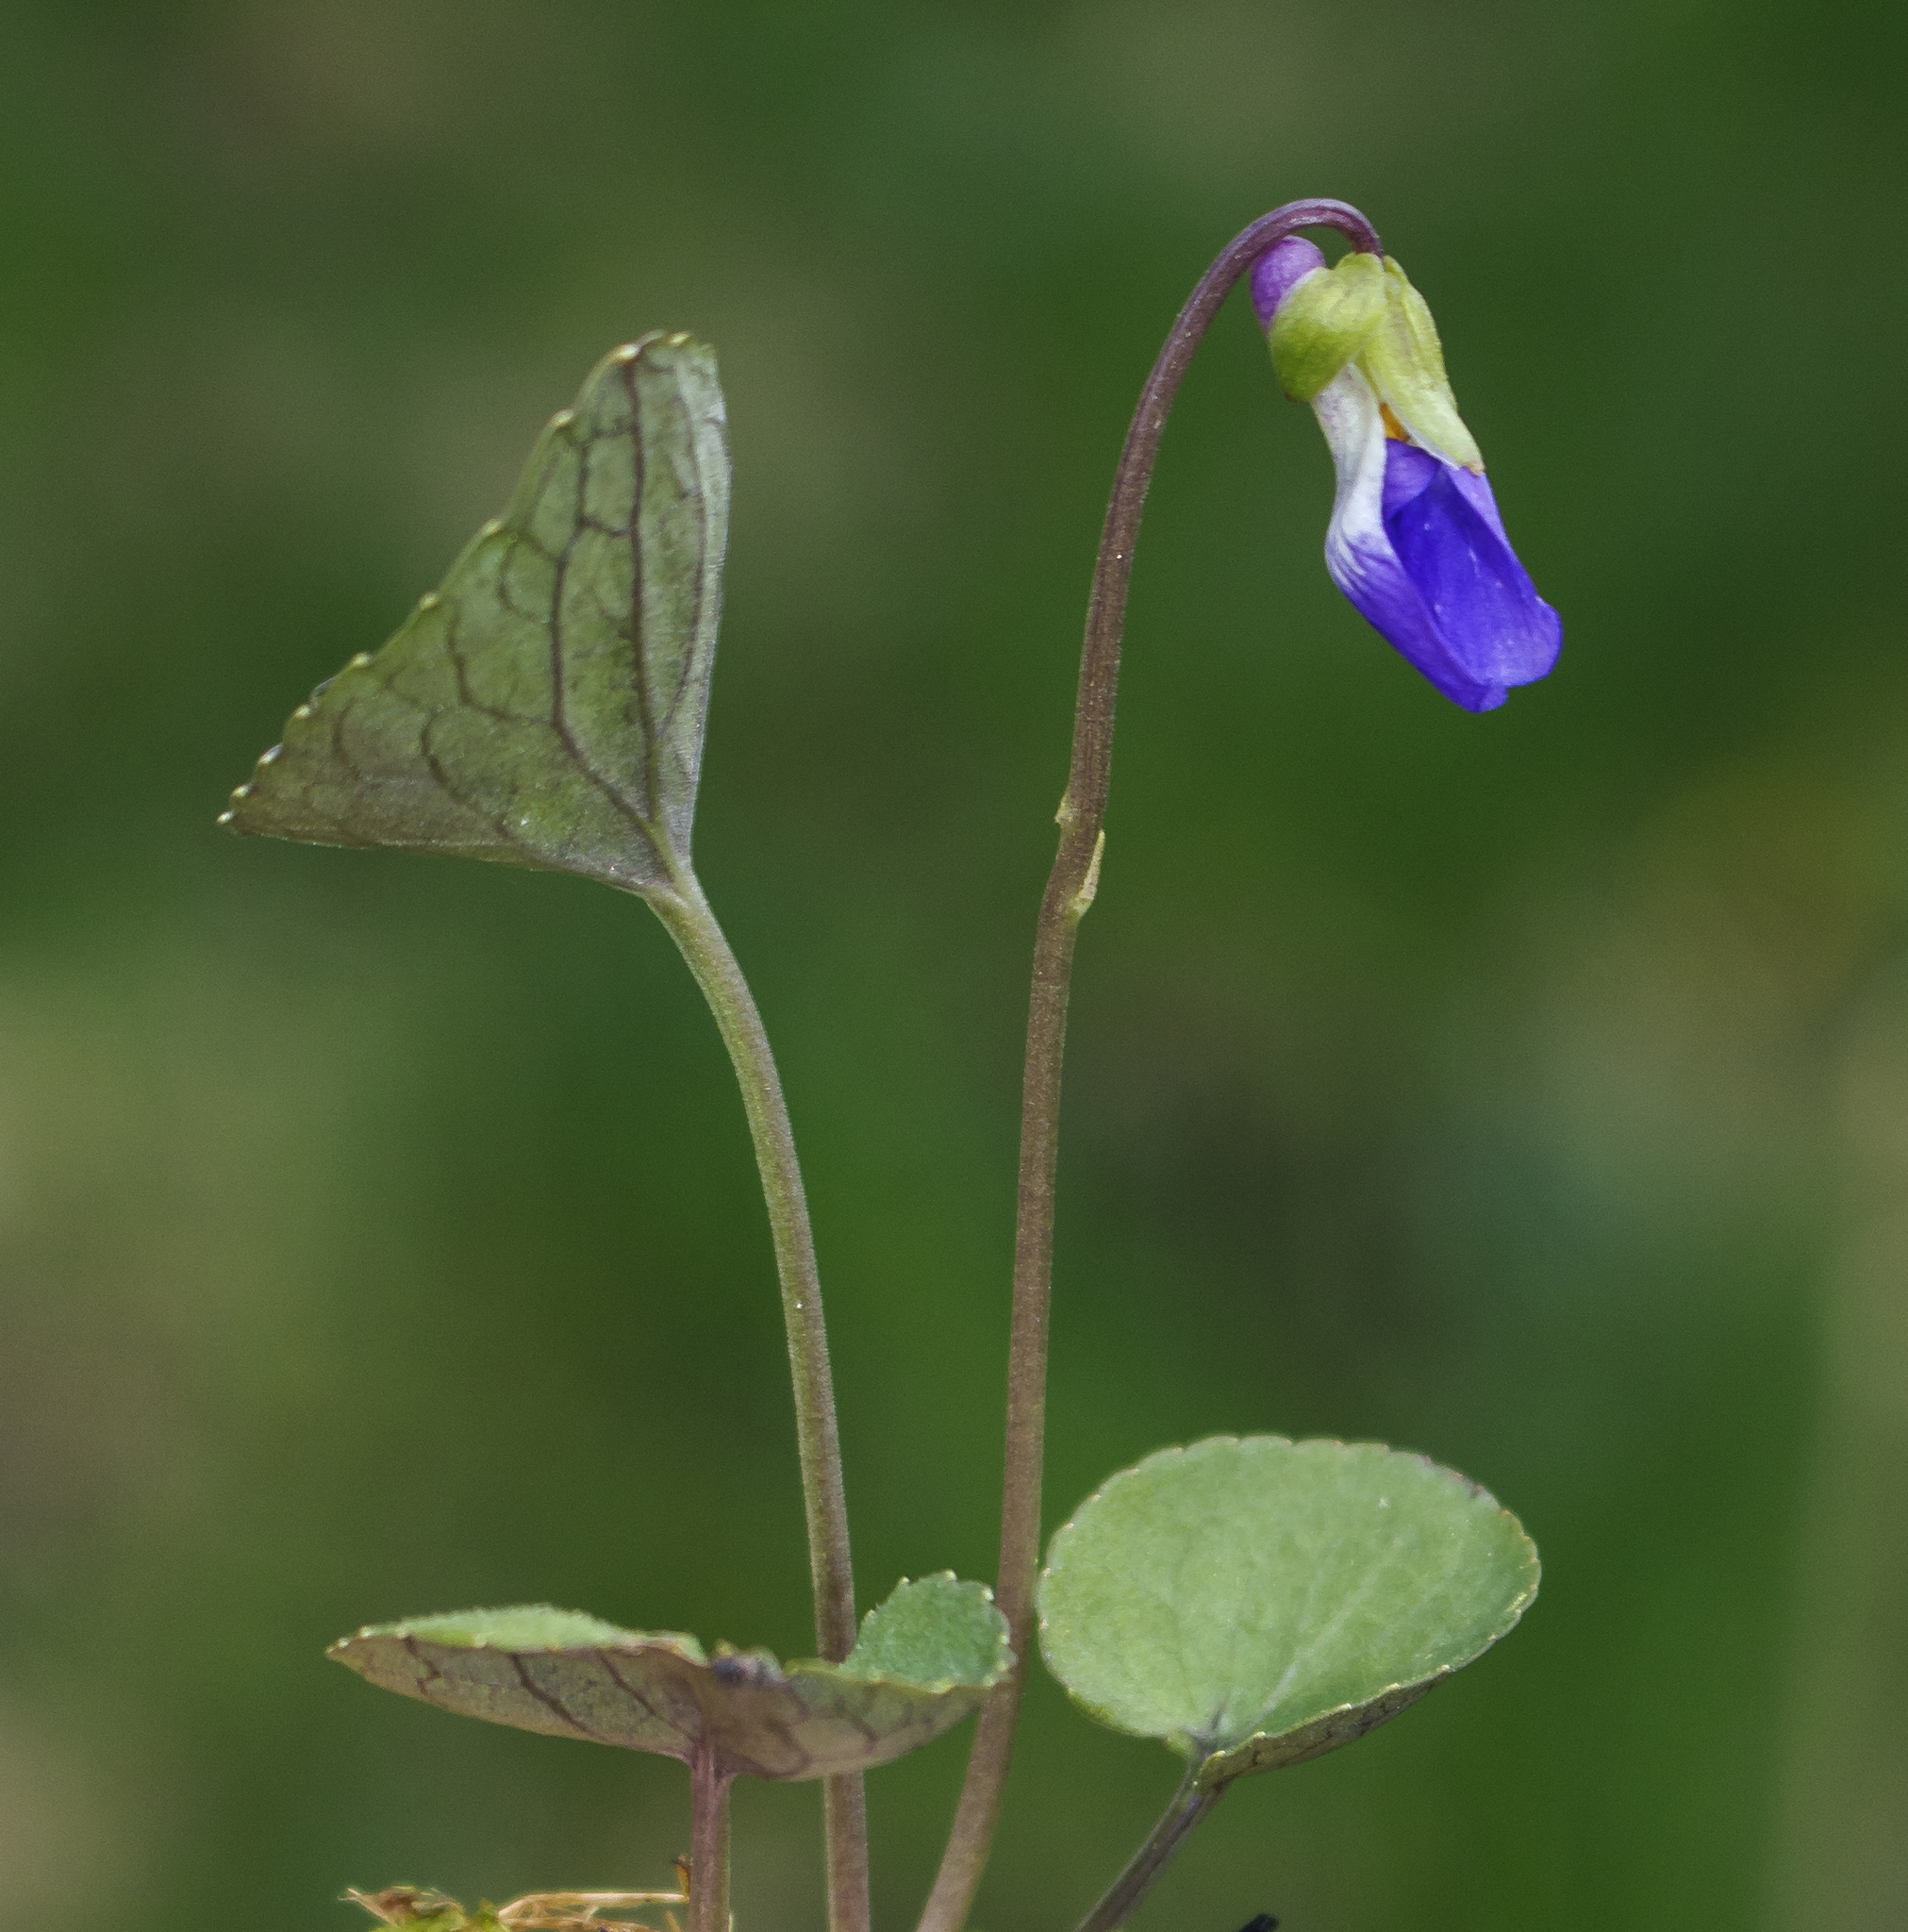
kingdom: Plantae
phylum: Tracheophyta
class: Magnoliopsida
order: Malpighiales
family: Violaceae
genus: Viola
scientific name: Viola nephrophylla
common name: Blue meadow violet
